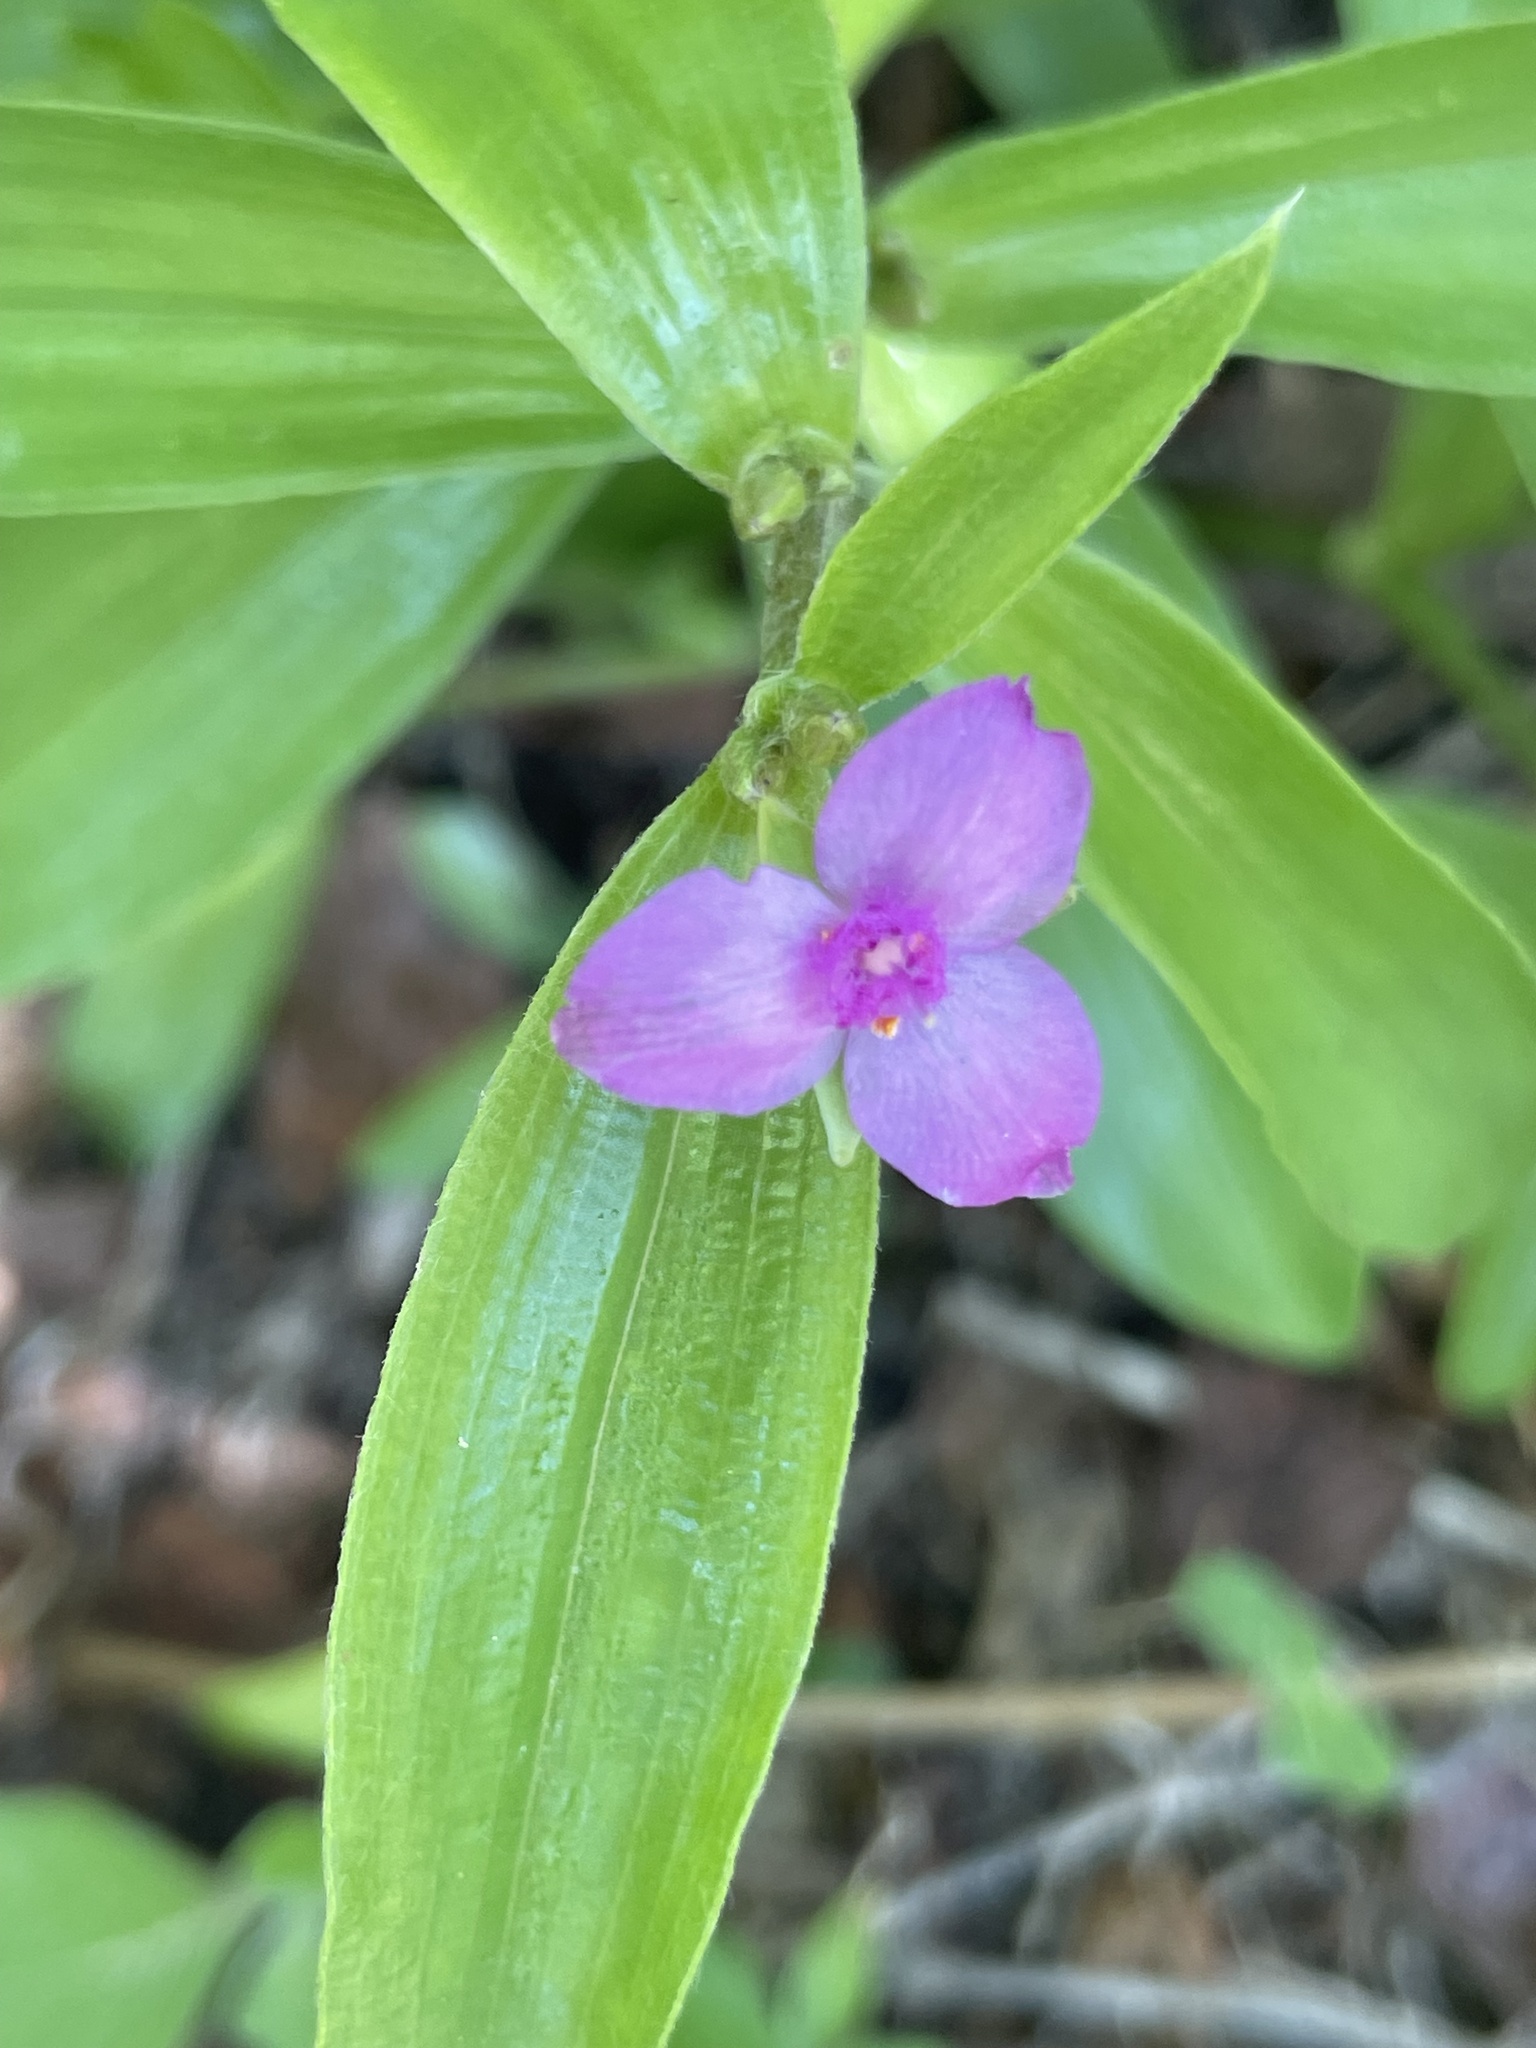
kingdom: Plantae
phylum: Tracheophyta
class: Liliopsida
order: Commelinales
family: Commelinaceae
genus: Tradescantia
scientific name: Tradescantia peninsularis
